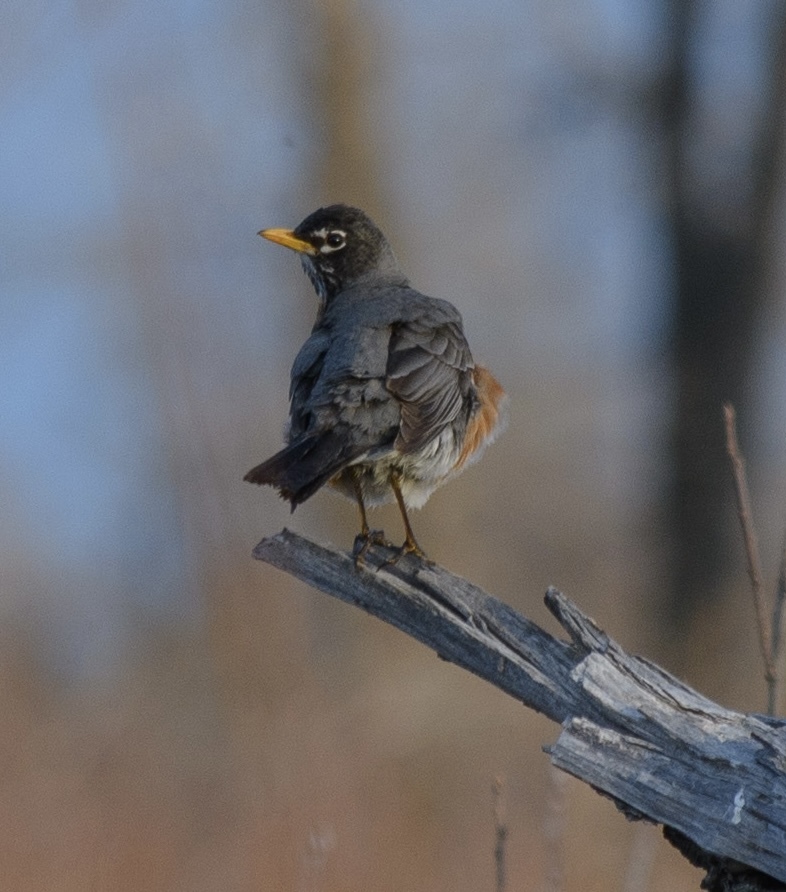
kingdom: Animalia
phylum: Chordata
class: Aves
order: Passeriformes
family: Turdidae
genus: Turdus
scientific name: Turdus migratorius
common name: American robin
